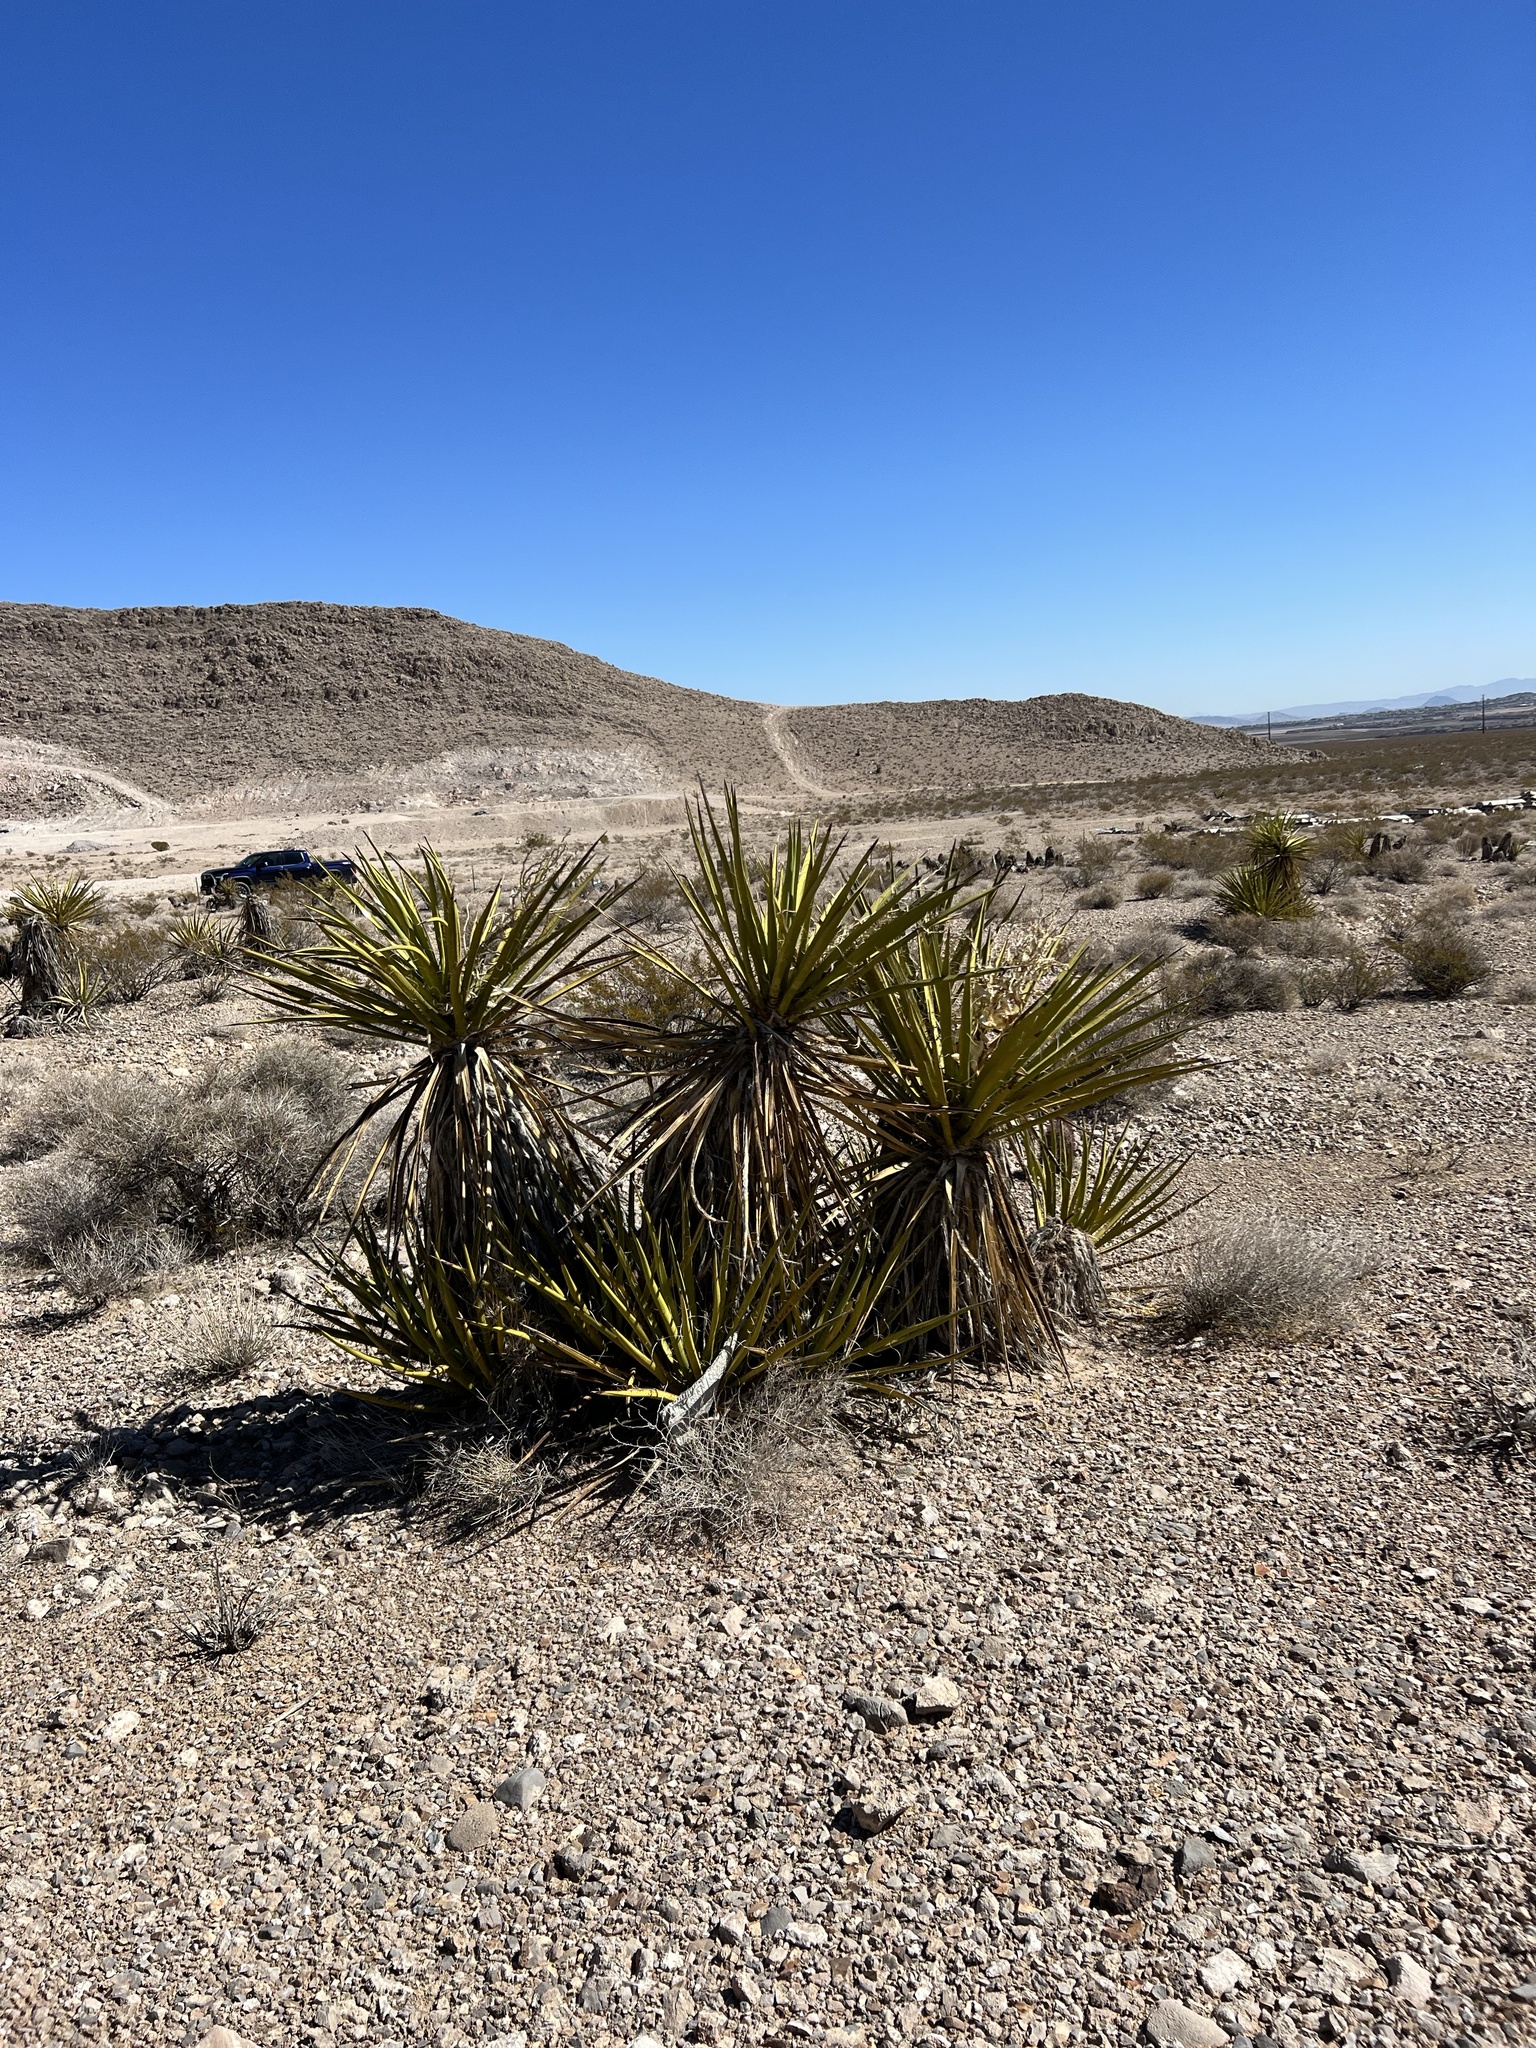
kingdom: Plantae
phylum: Tracheophyta
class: Liliopsida
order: Asparagales
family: Asparagaceae
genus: Yucca
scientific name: Yucca schidigera
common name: Mojave yucca
